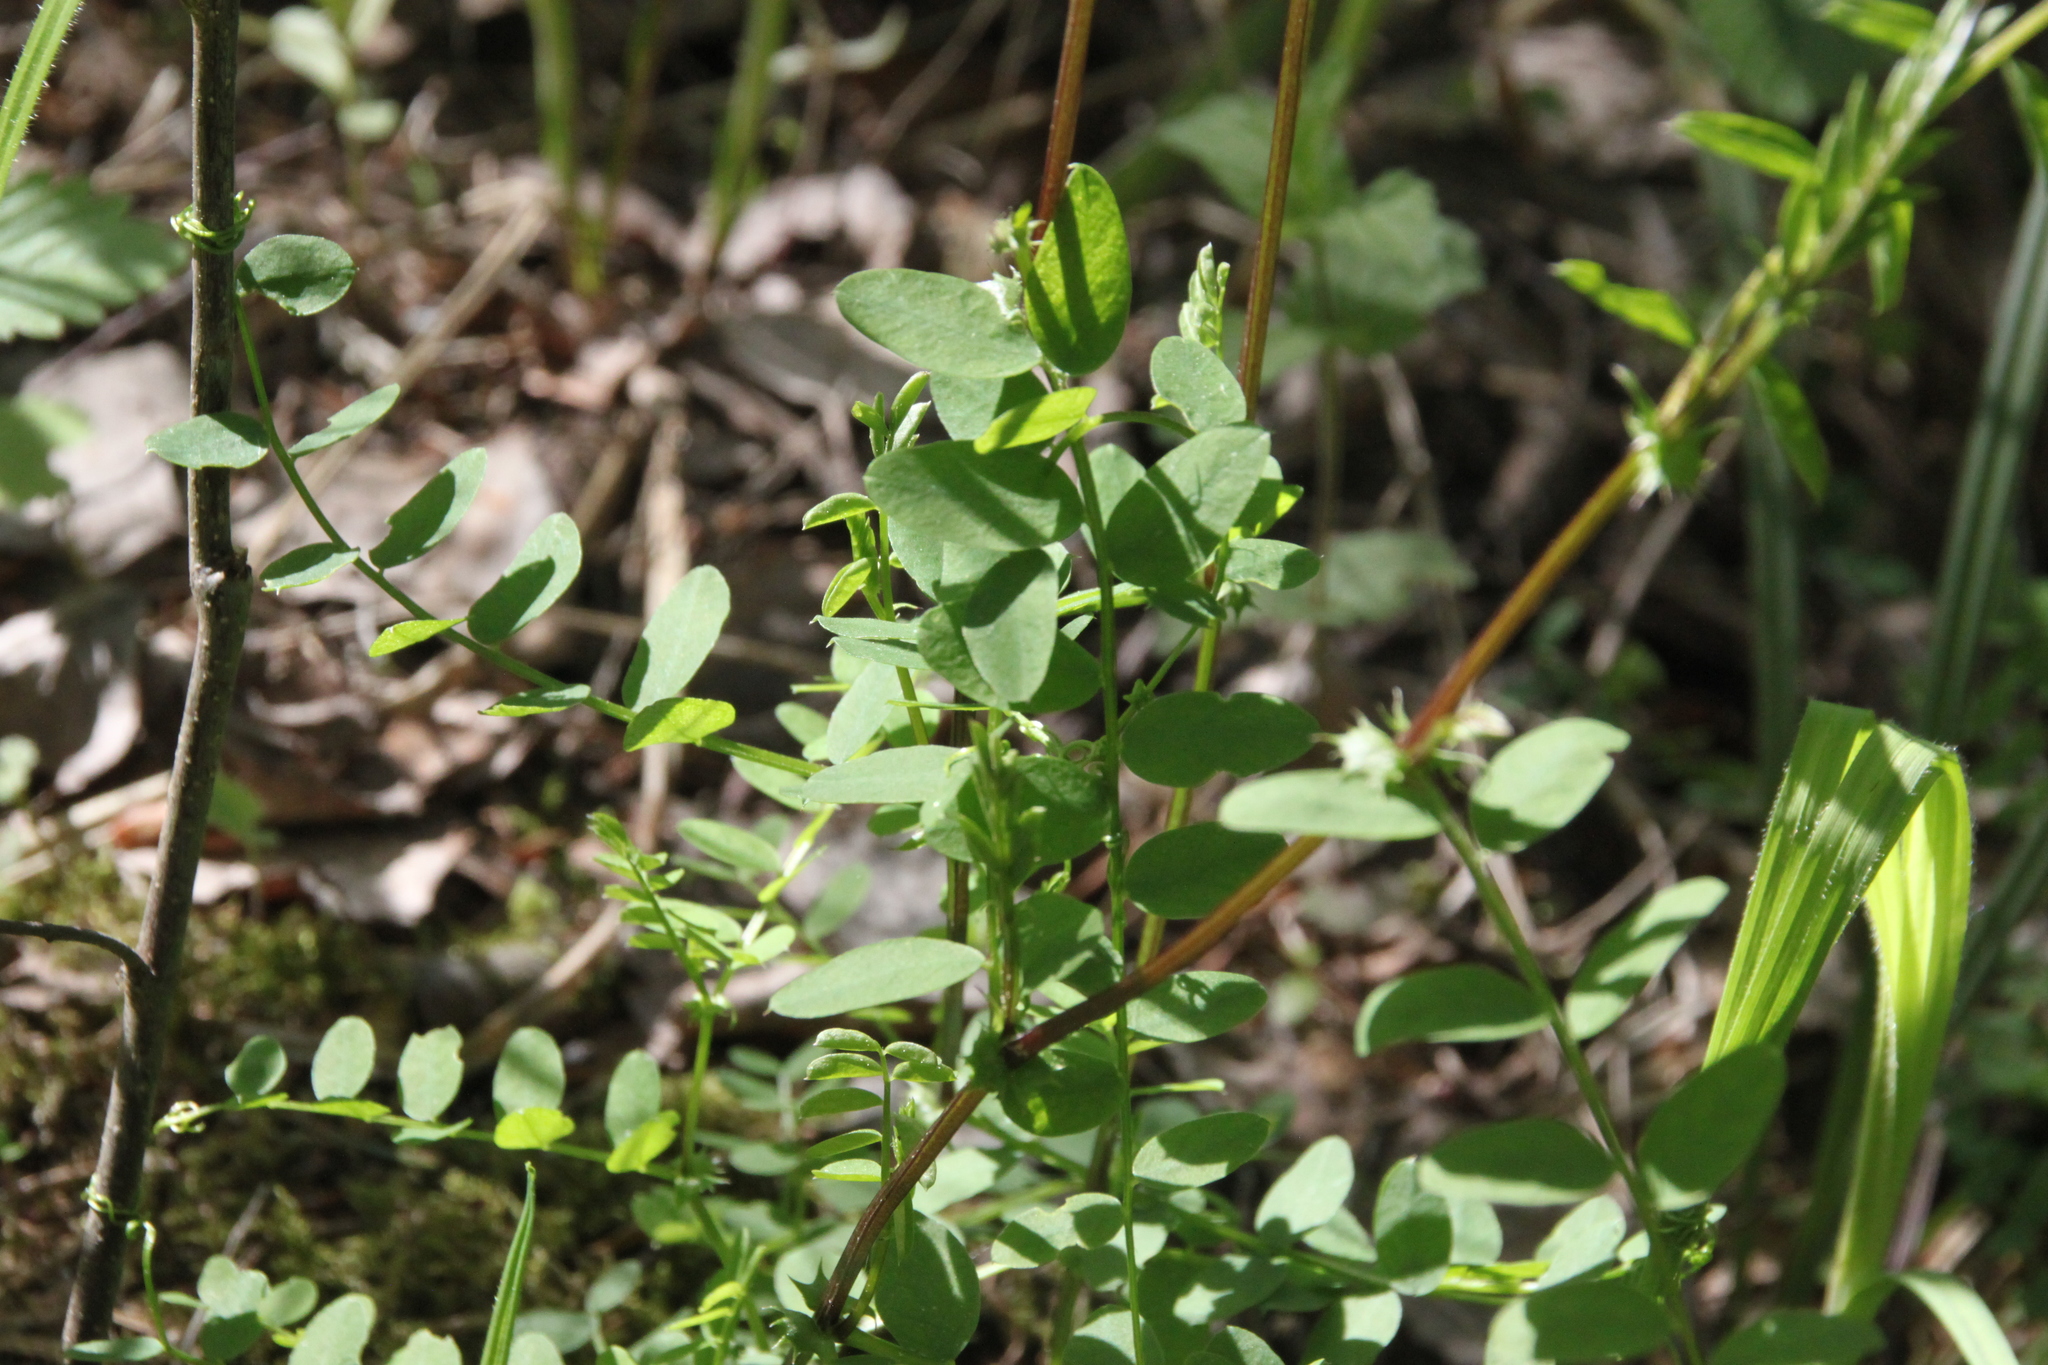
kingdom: Plantae
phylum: Tracheophyta
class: Magnoliopsida
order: Fabales
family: Fabaceae
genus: Vicia
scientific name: Vicia sylvatica
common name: Wood vetch
